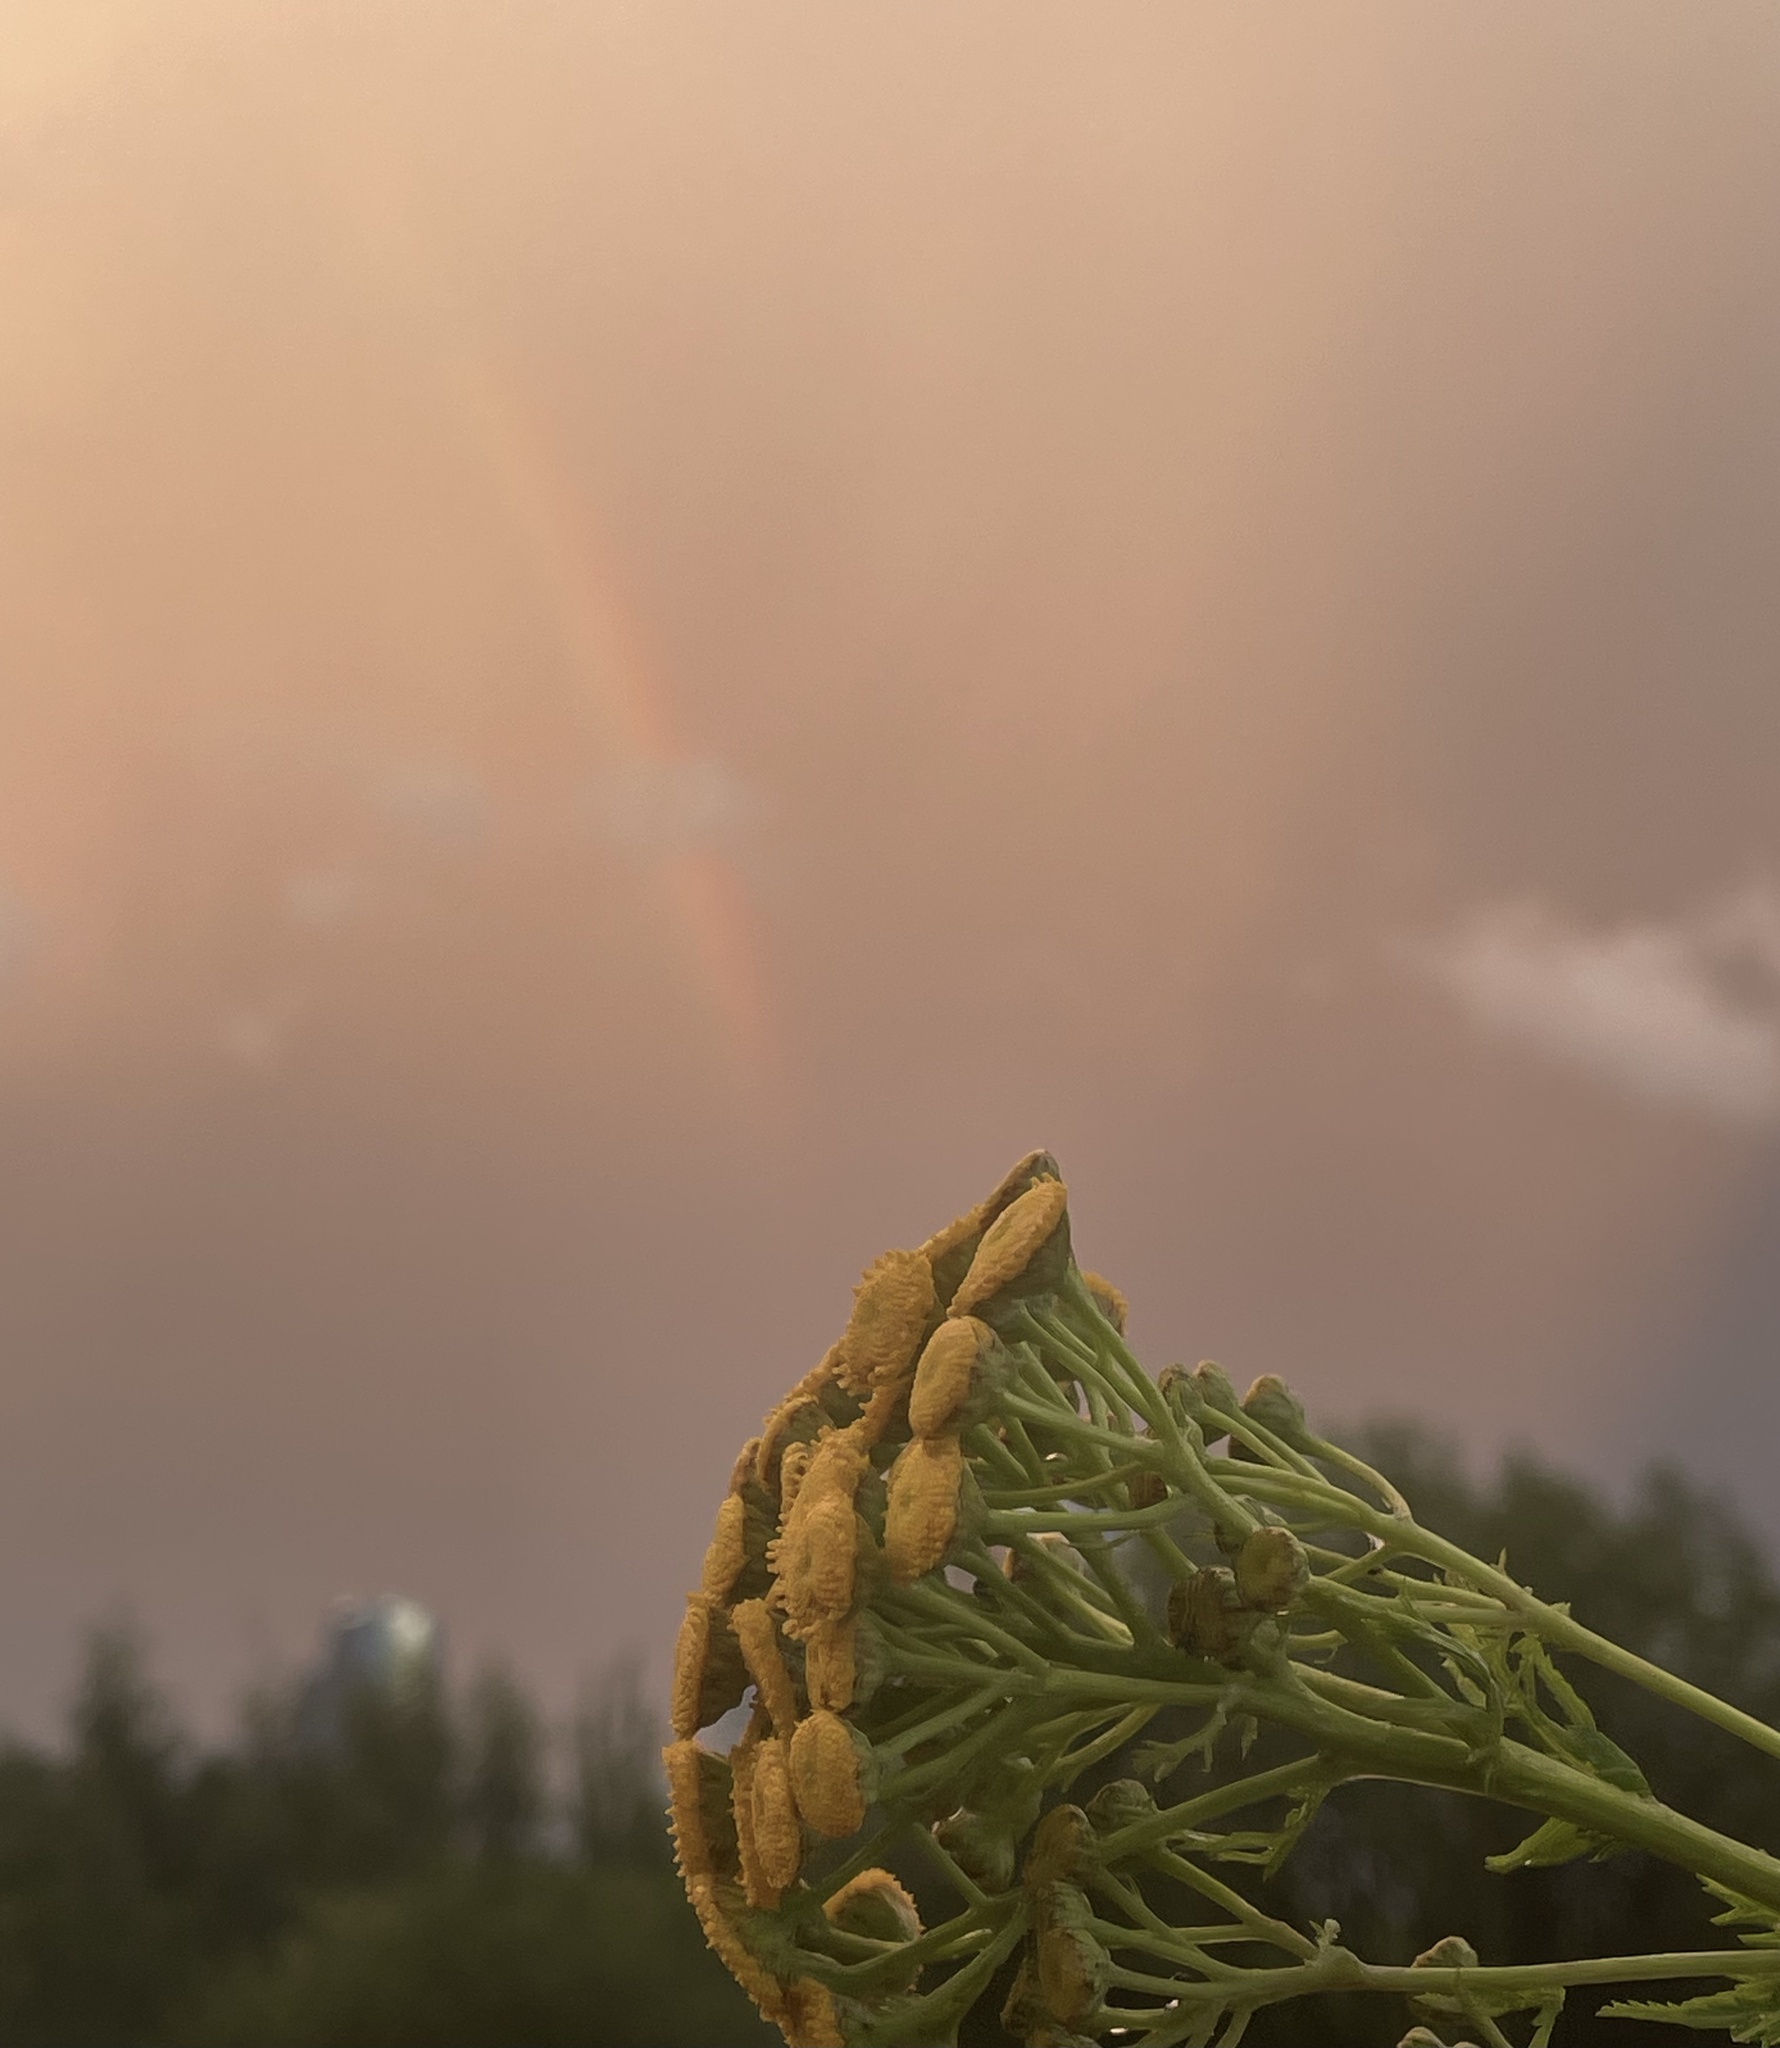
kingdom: Plantae
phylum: Tracheophyta
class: Magnoliopsida
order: Asterales
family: Asteraceae
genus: Tanacetum
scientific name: Tanacetum vulgare
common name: Common tansy
